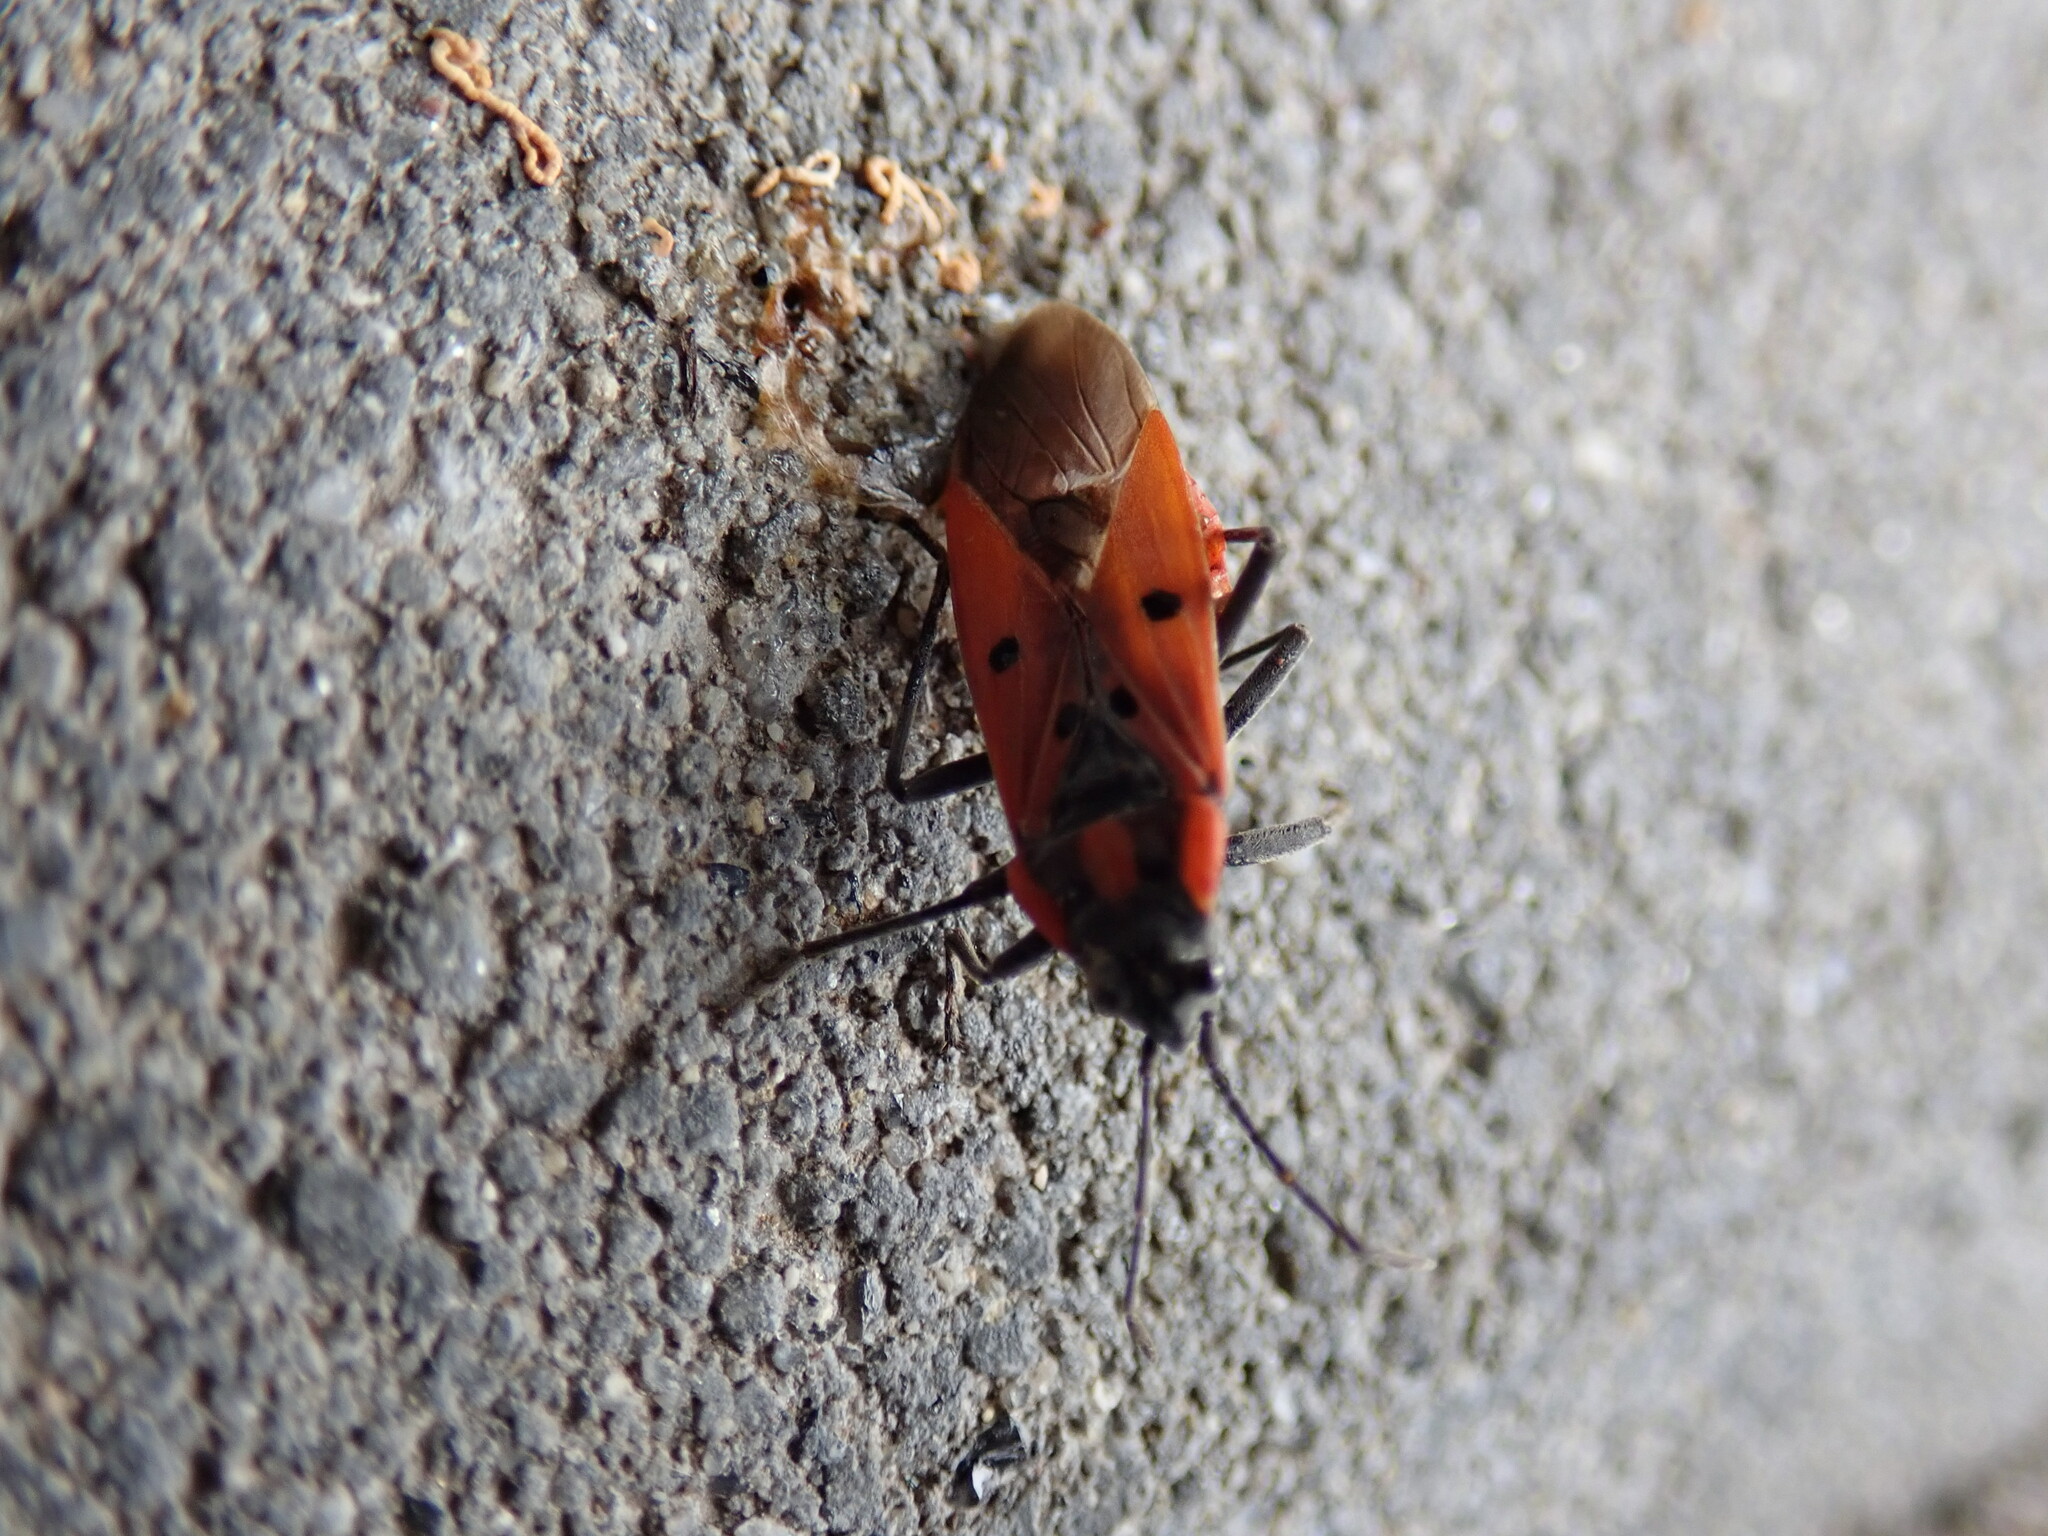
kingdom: Animalia
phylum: Arthropoda
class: Insecta
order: Hemiptera
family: Lygaeidae
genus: Lygaeus
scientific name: Lygaeus creticus
